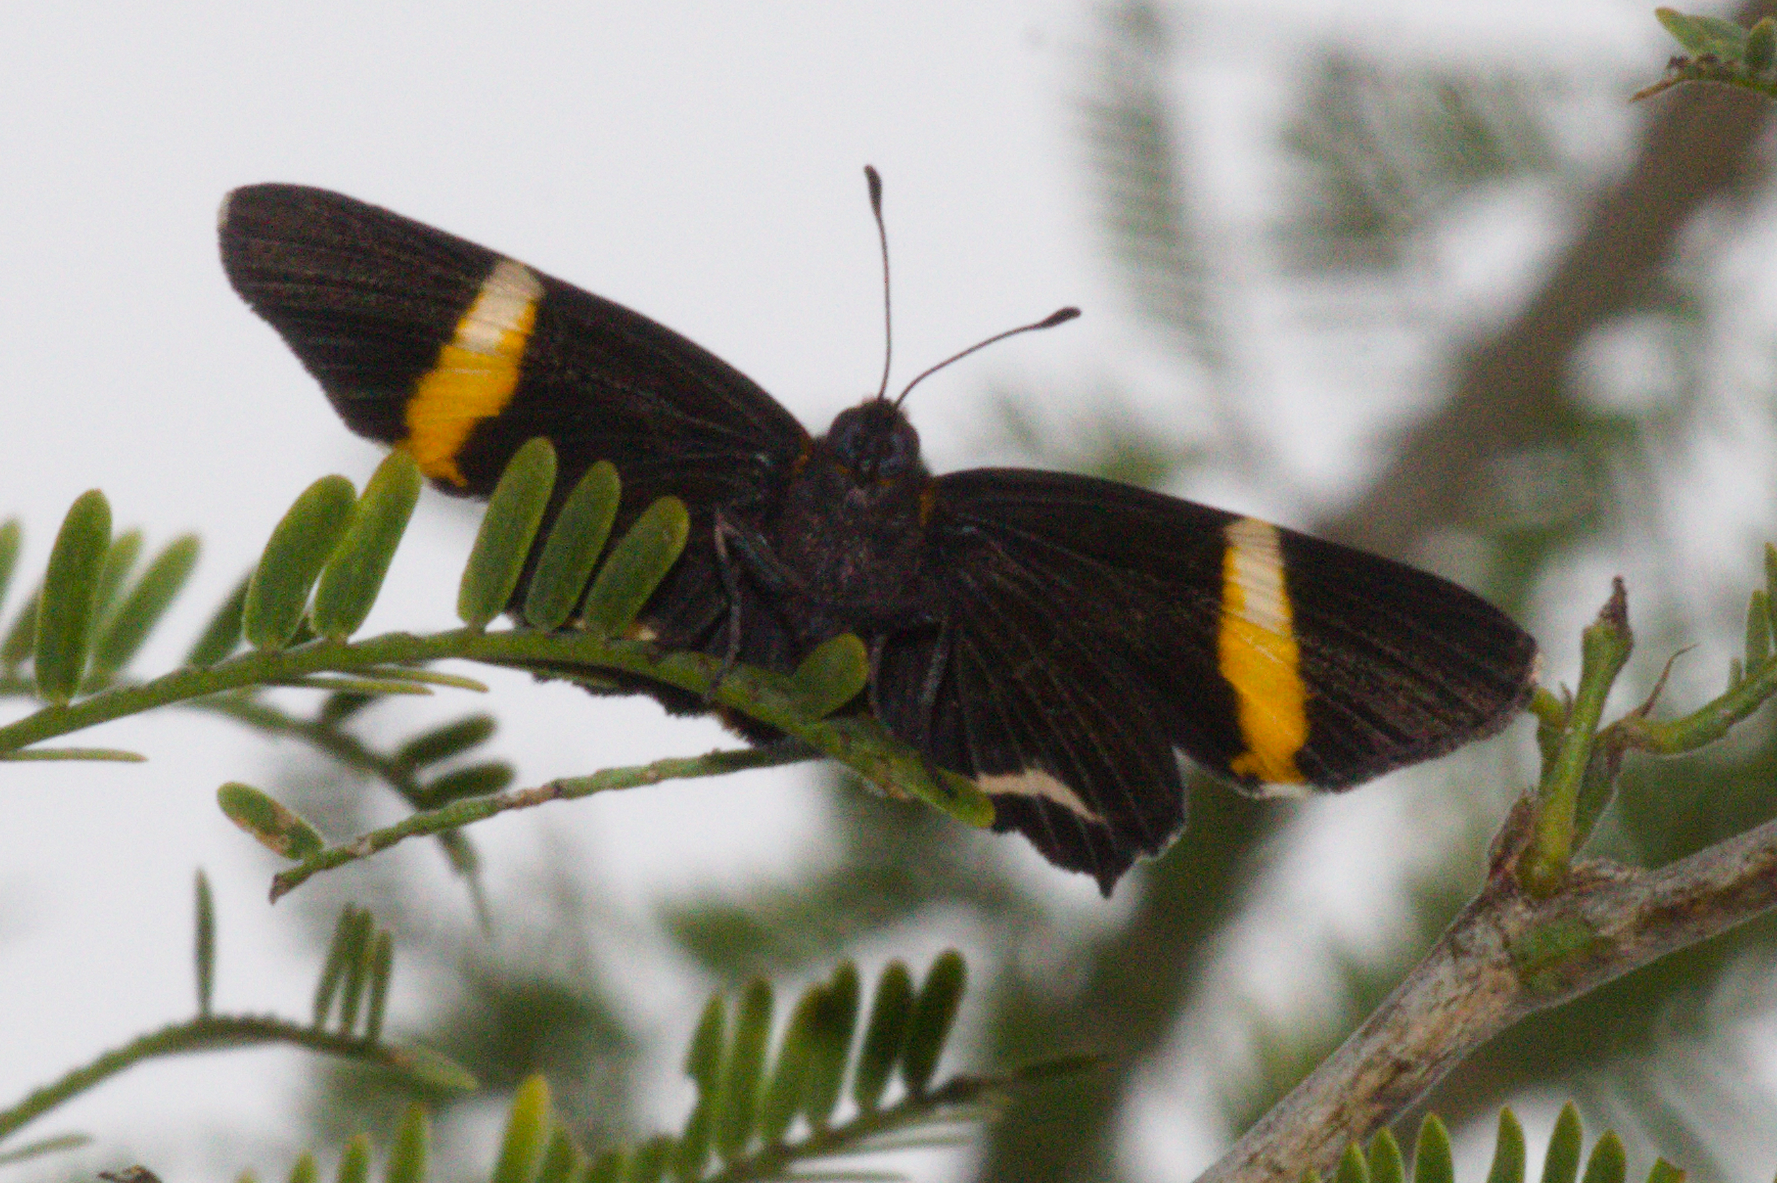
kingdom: Animalia
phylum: Arthropoda
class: Insecta
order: Lepidoptera
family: Riodinidae
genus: Riodina
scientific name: Riodina lysippoides
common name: Little dancer metalmark
